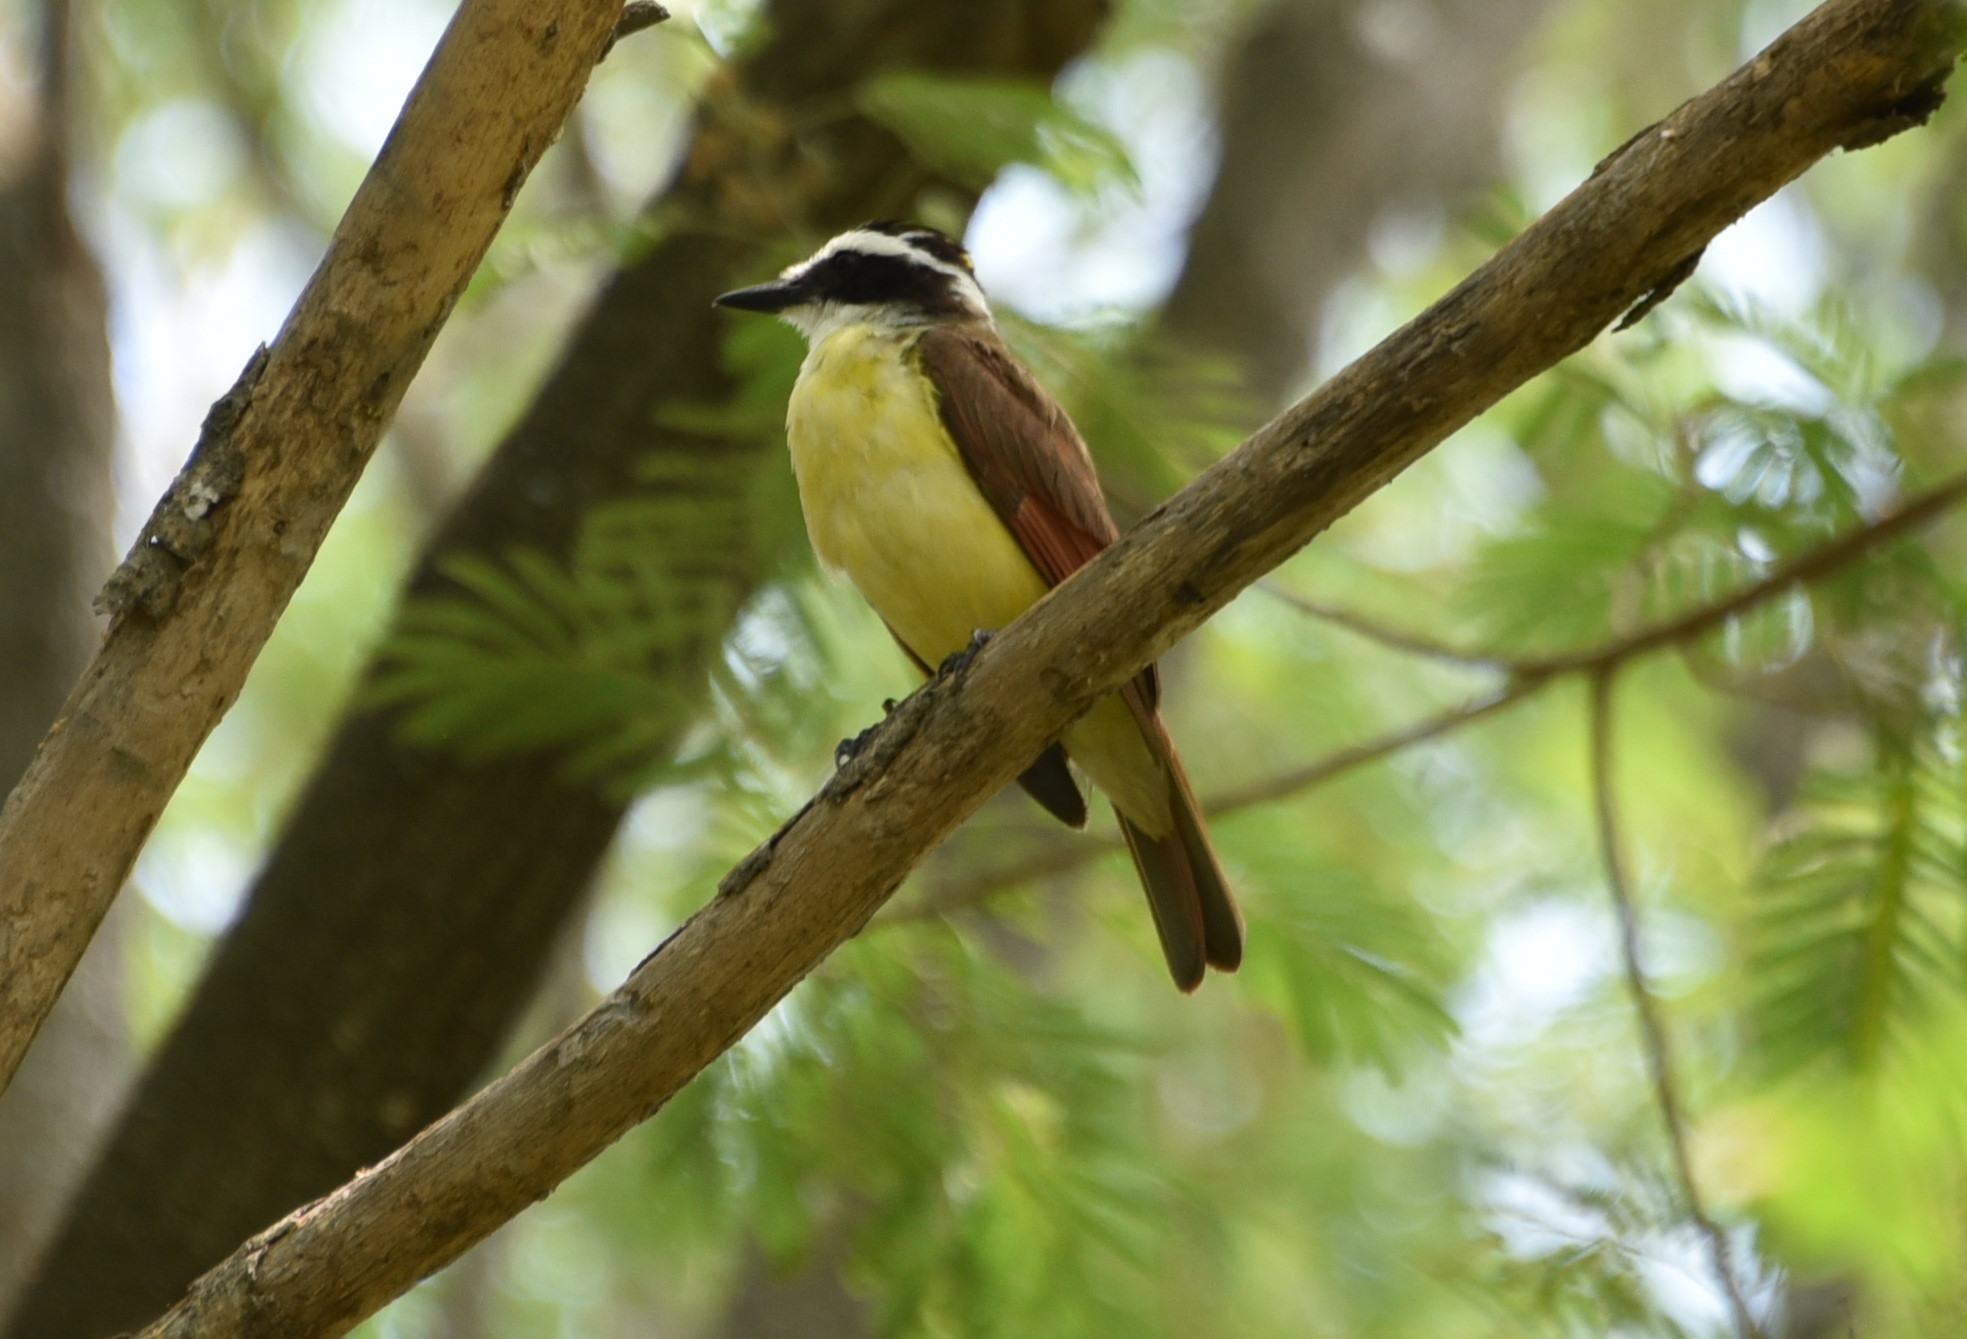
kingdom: Animalia
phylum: Chordata
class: Aves
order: Passeriformes
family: Tyrannidae
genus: Pitangus
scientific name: Pitangus sulphuratus
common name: Great kiskadee
